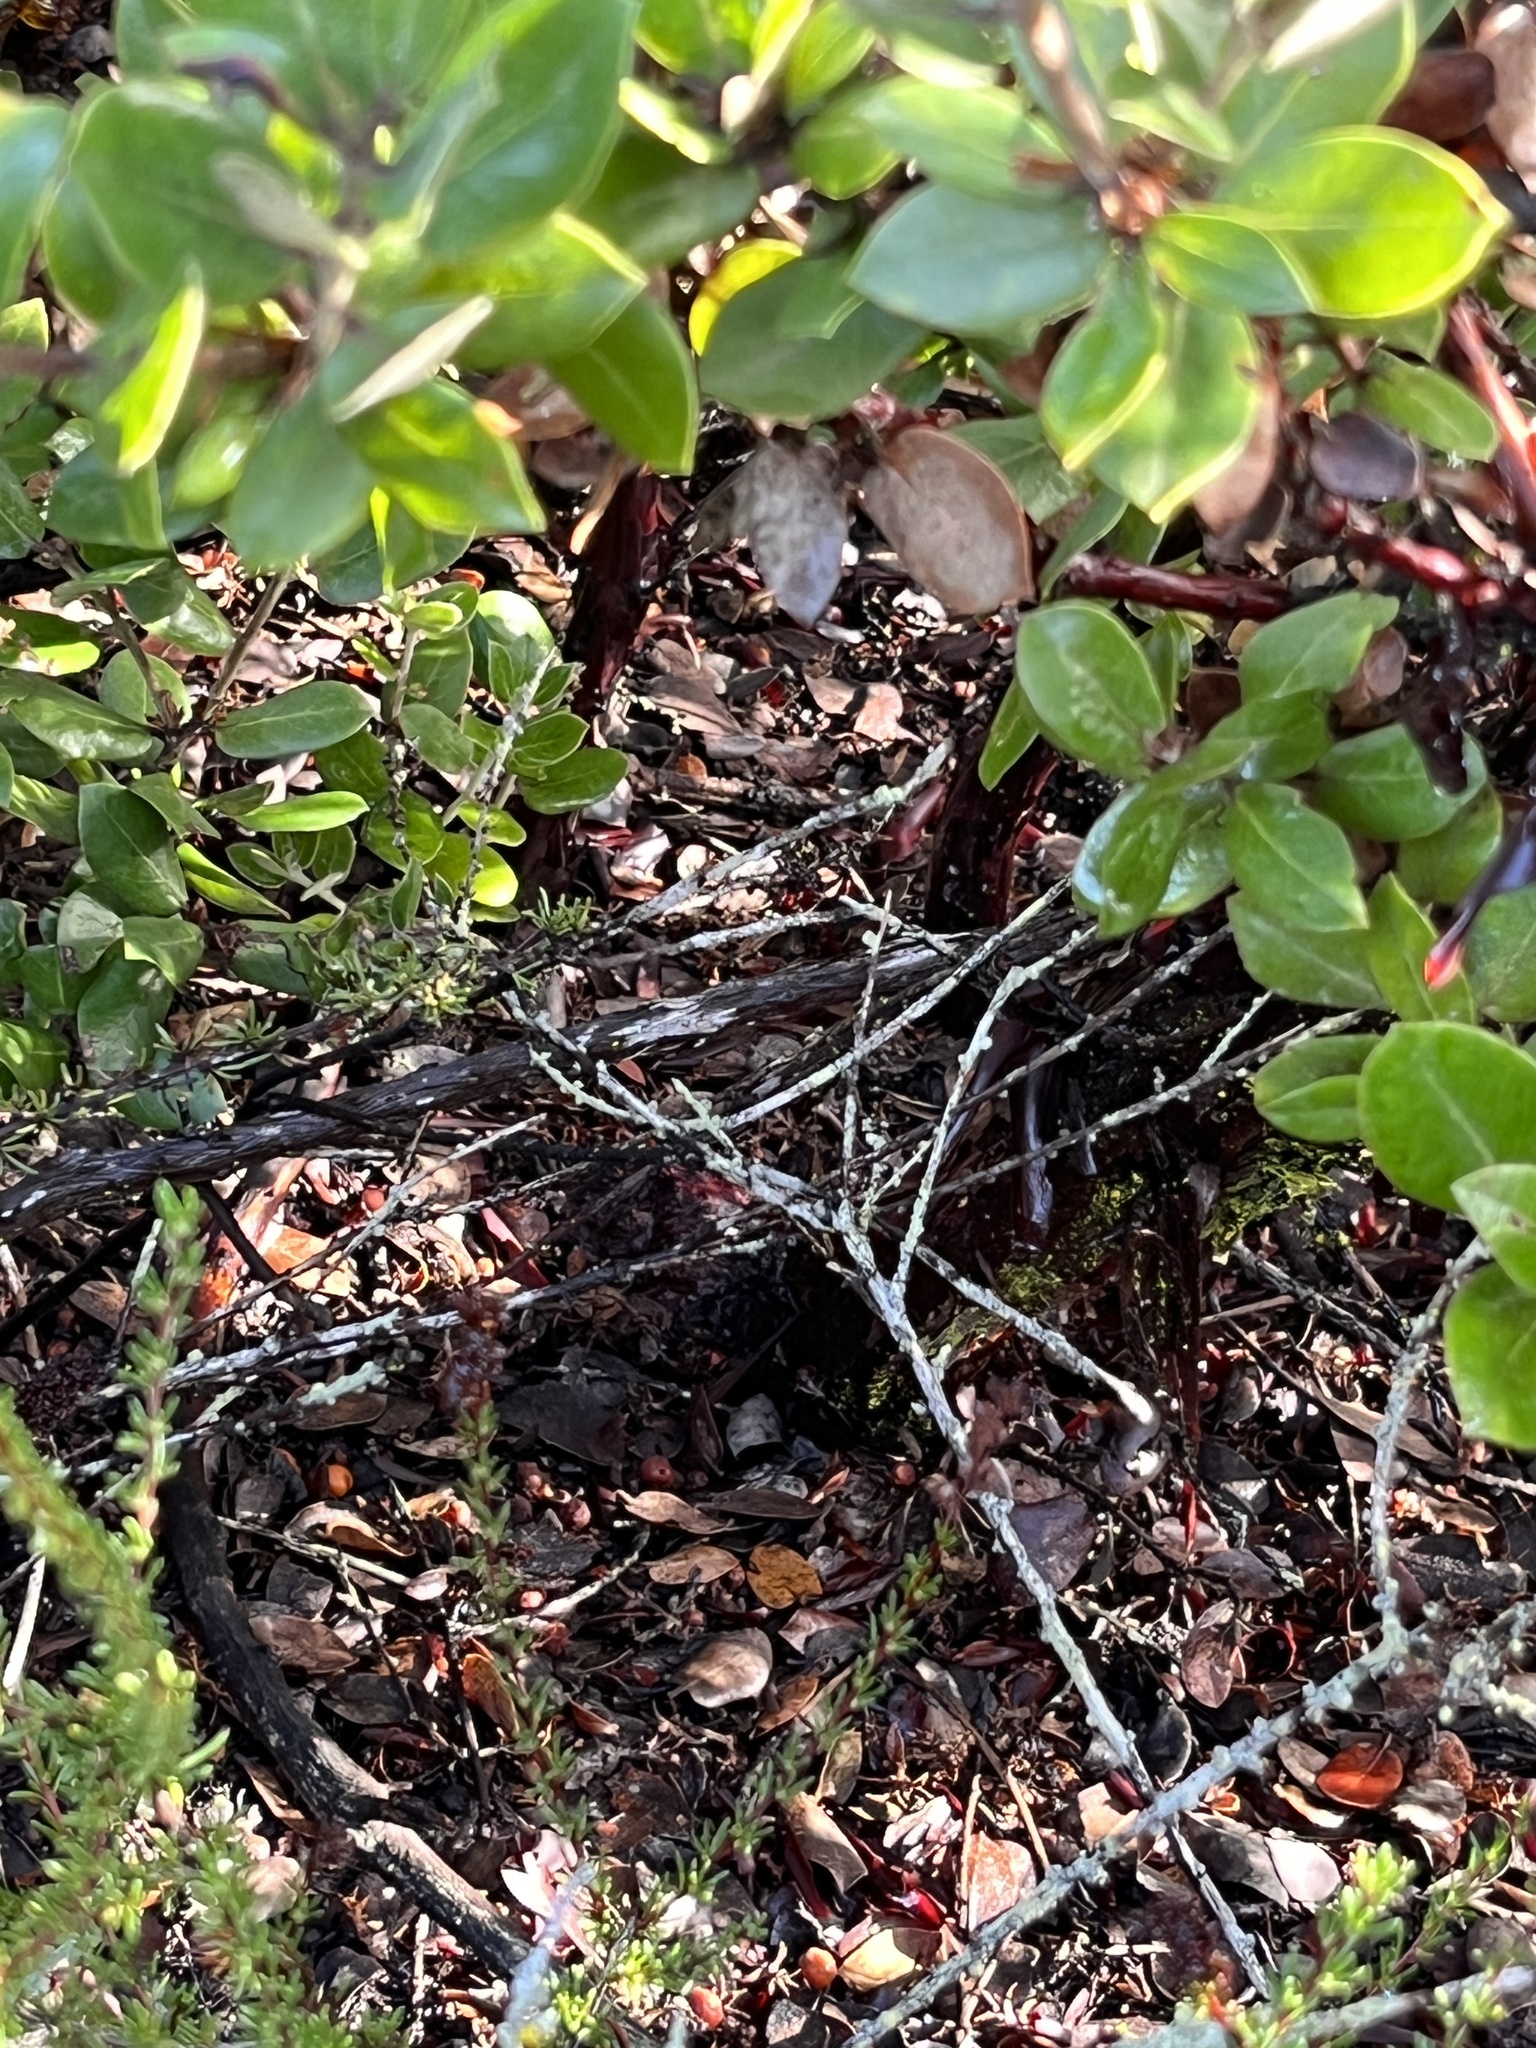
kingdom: Plantae
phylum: Tracheophyta
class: Magnoliopsida
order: Ericales
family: Ericaceae
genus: Arctostaphylos
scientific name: Arctostaphylos tomentosa
